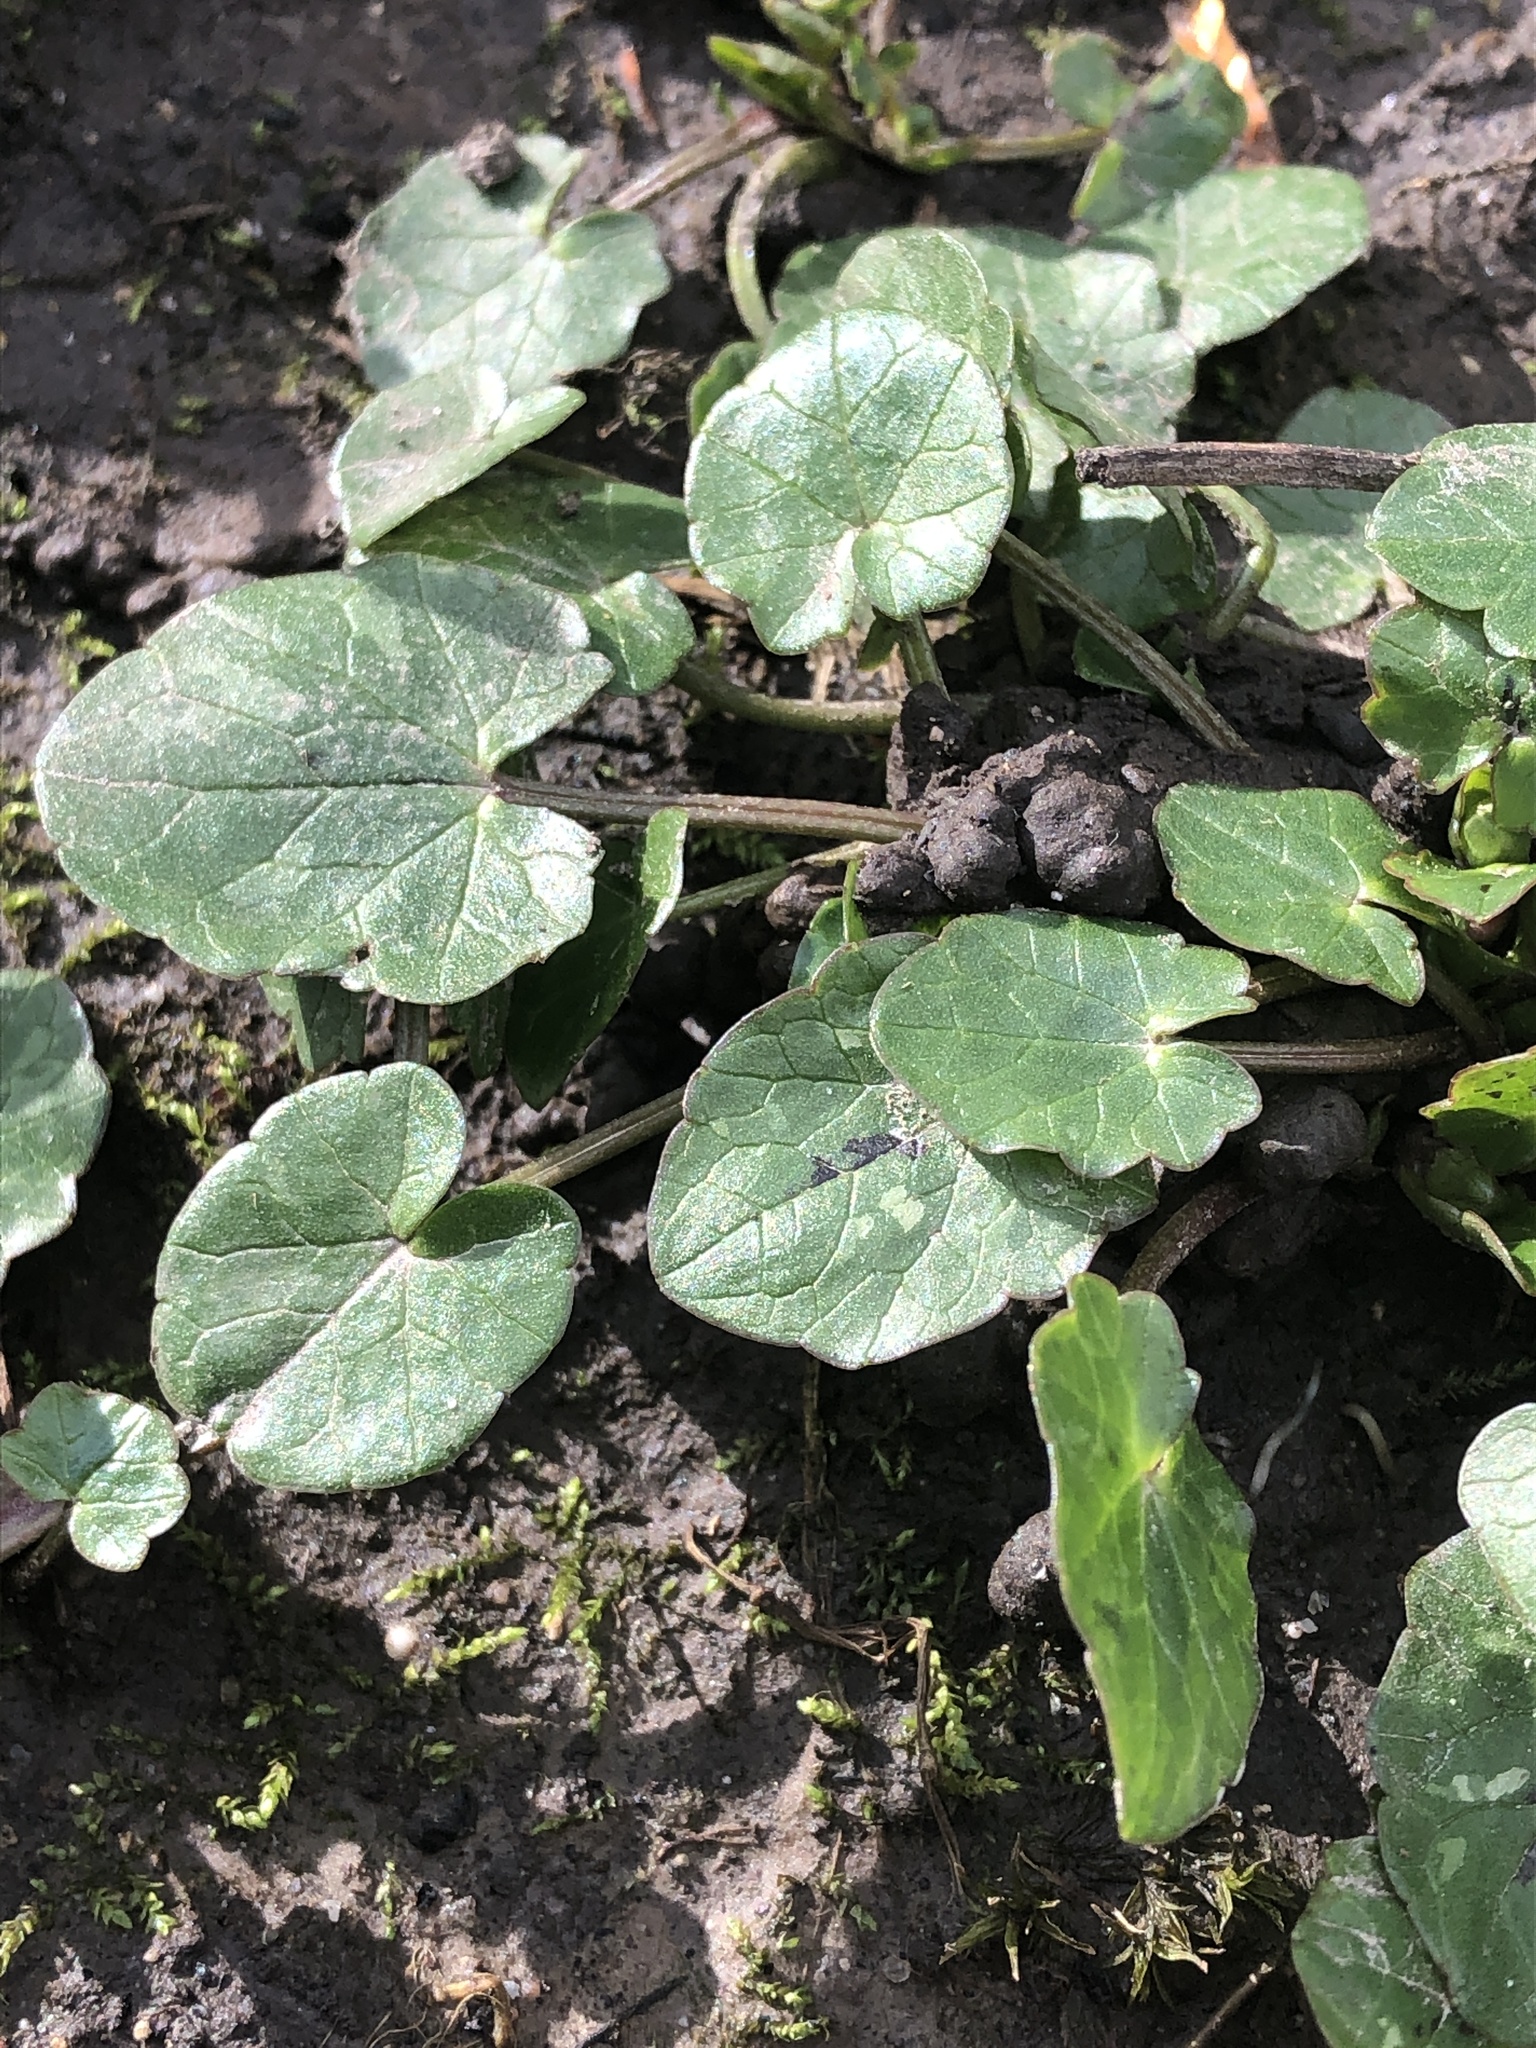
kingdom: Plantae
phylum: Tracheophyta
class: Magnoliopsida
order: Ranunculales
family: Ranunculaceae
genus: Ficaria
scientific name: Ficaria verna
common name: Lesser celandine
